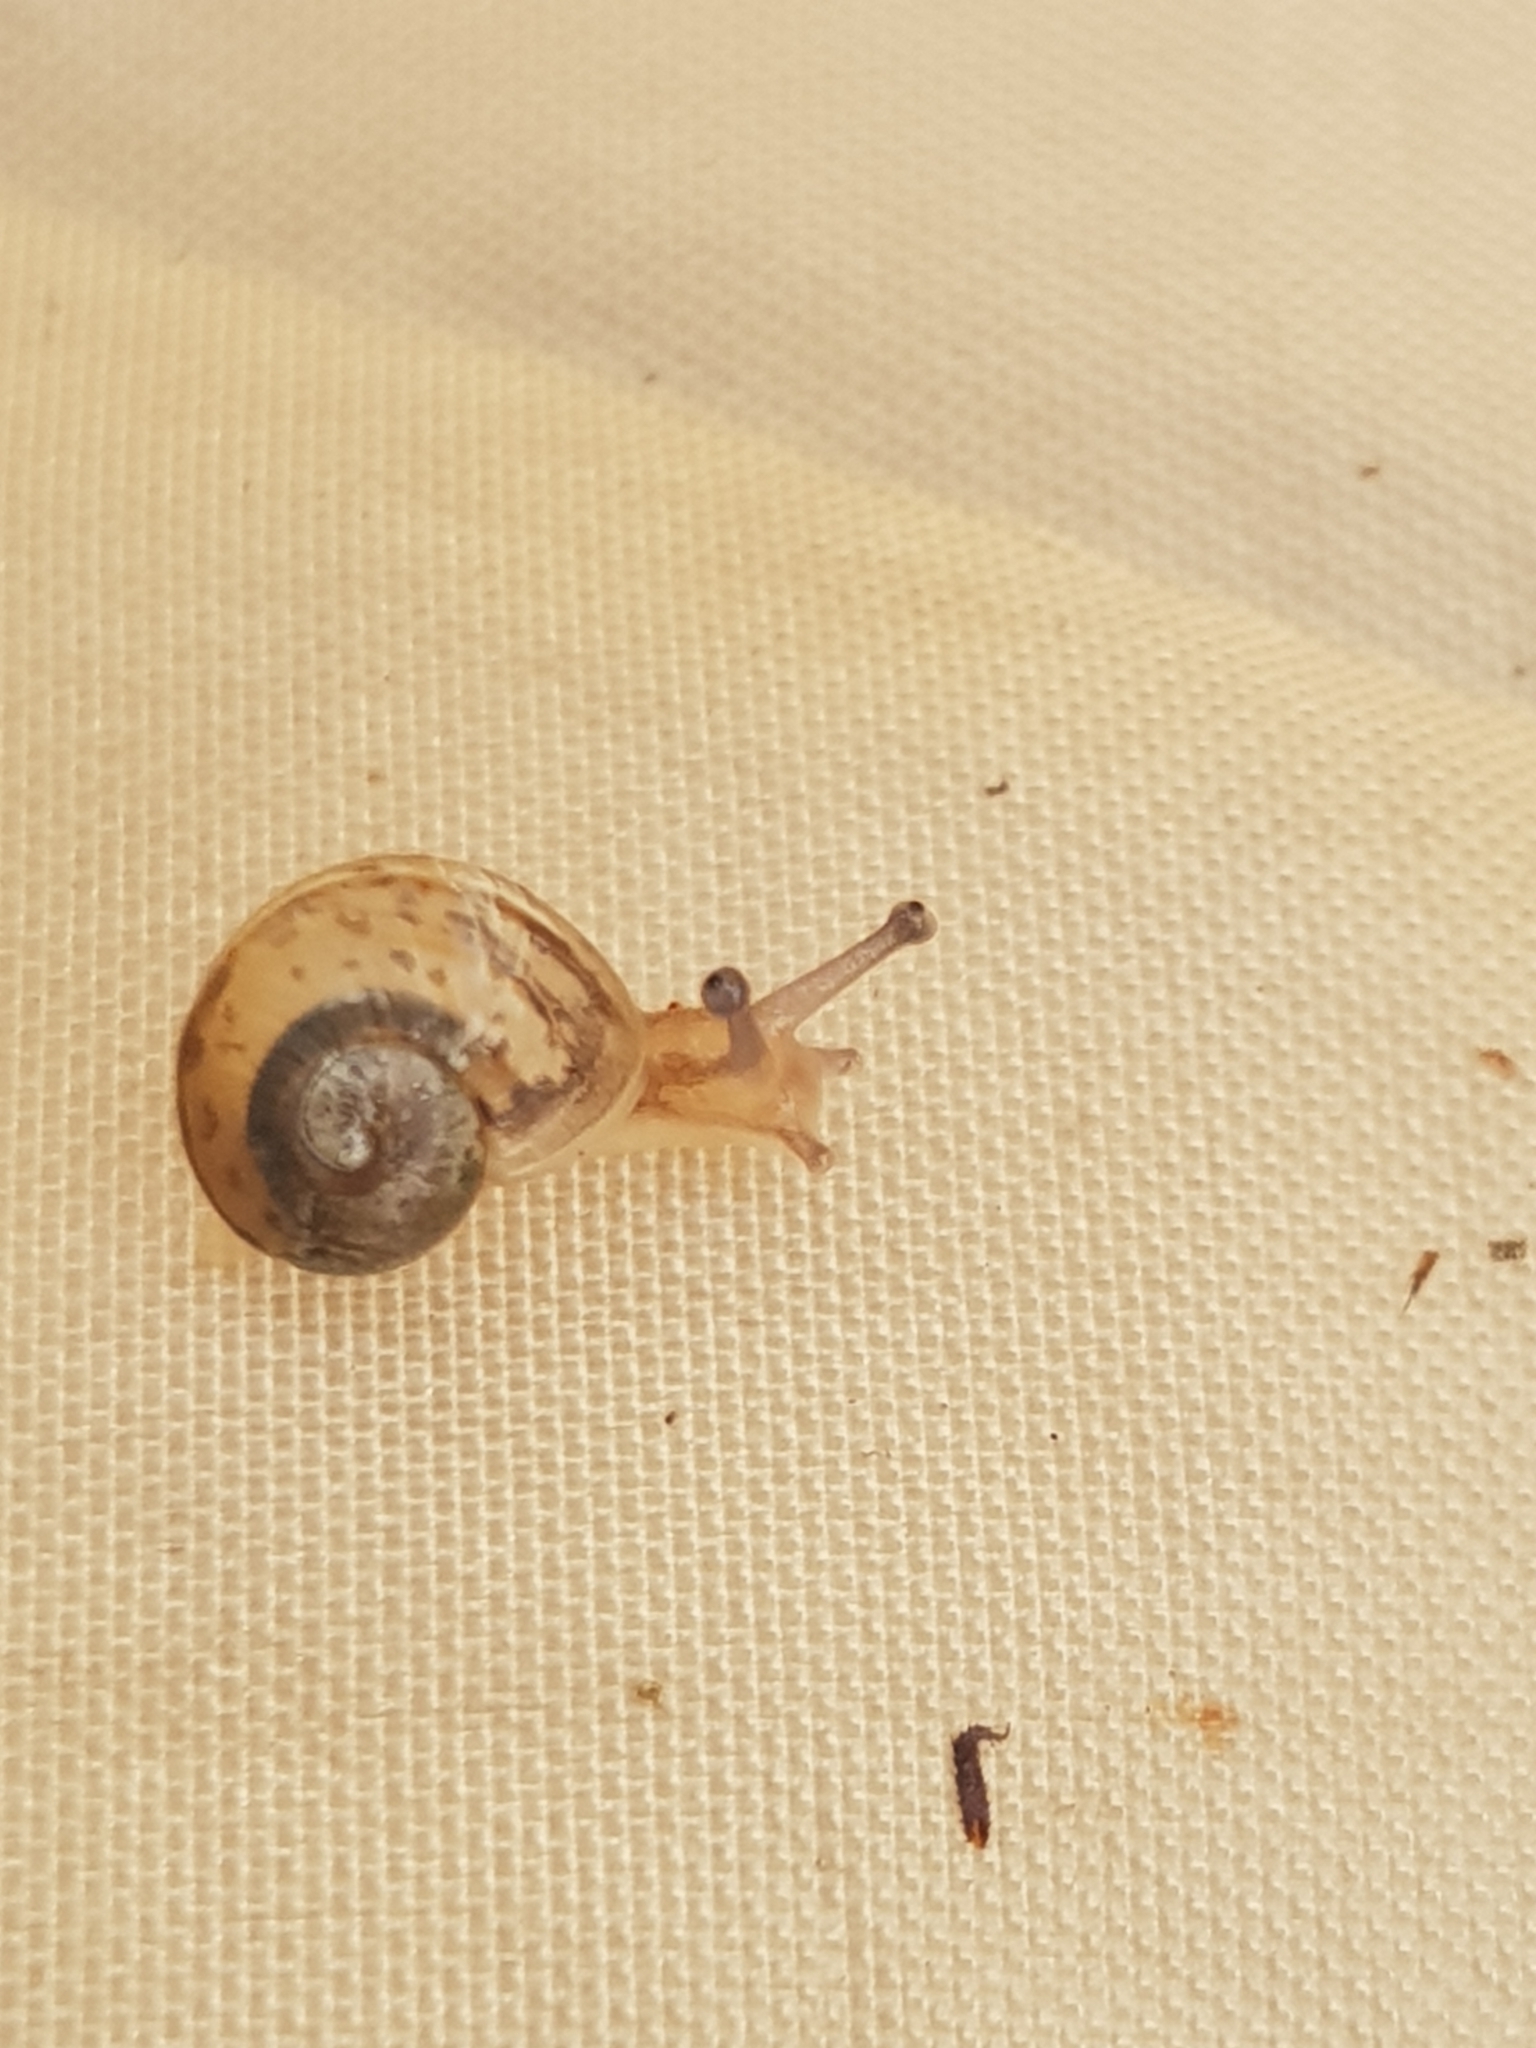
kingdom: Animalia
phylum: Mollusca
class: Gastropoda
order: Stylommatophora
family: Helicidae
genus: Cornu
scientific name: Cornu aspersum
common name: Brown garden snail
